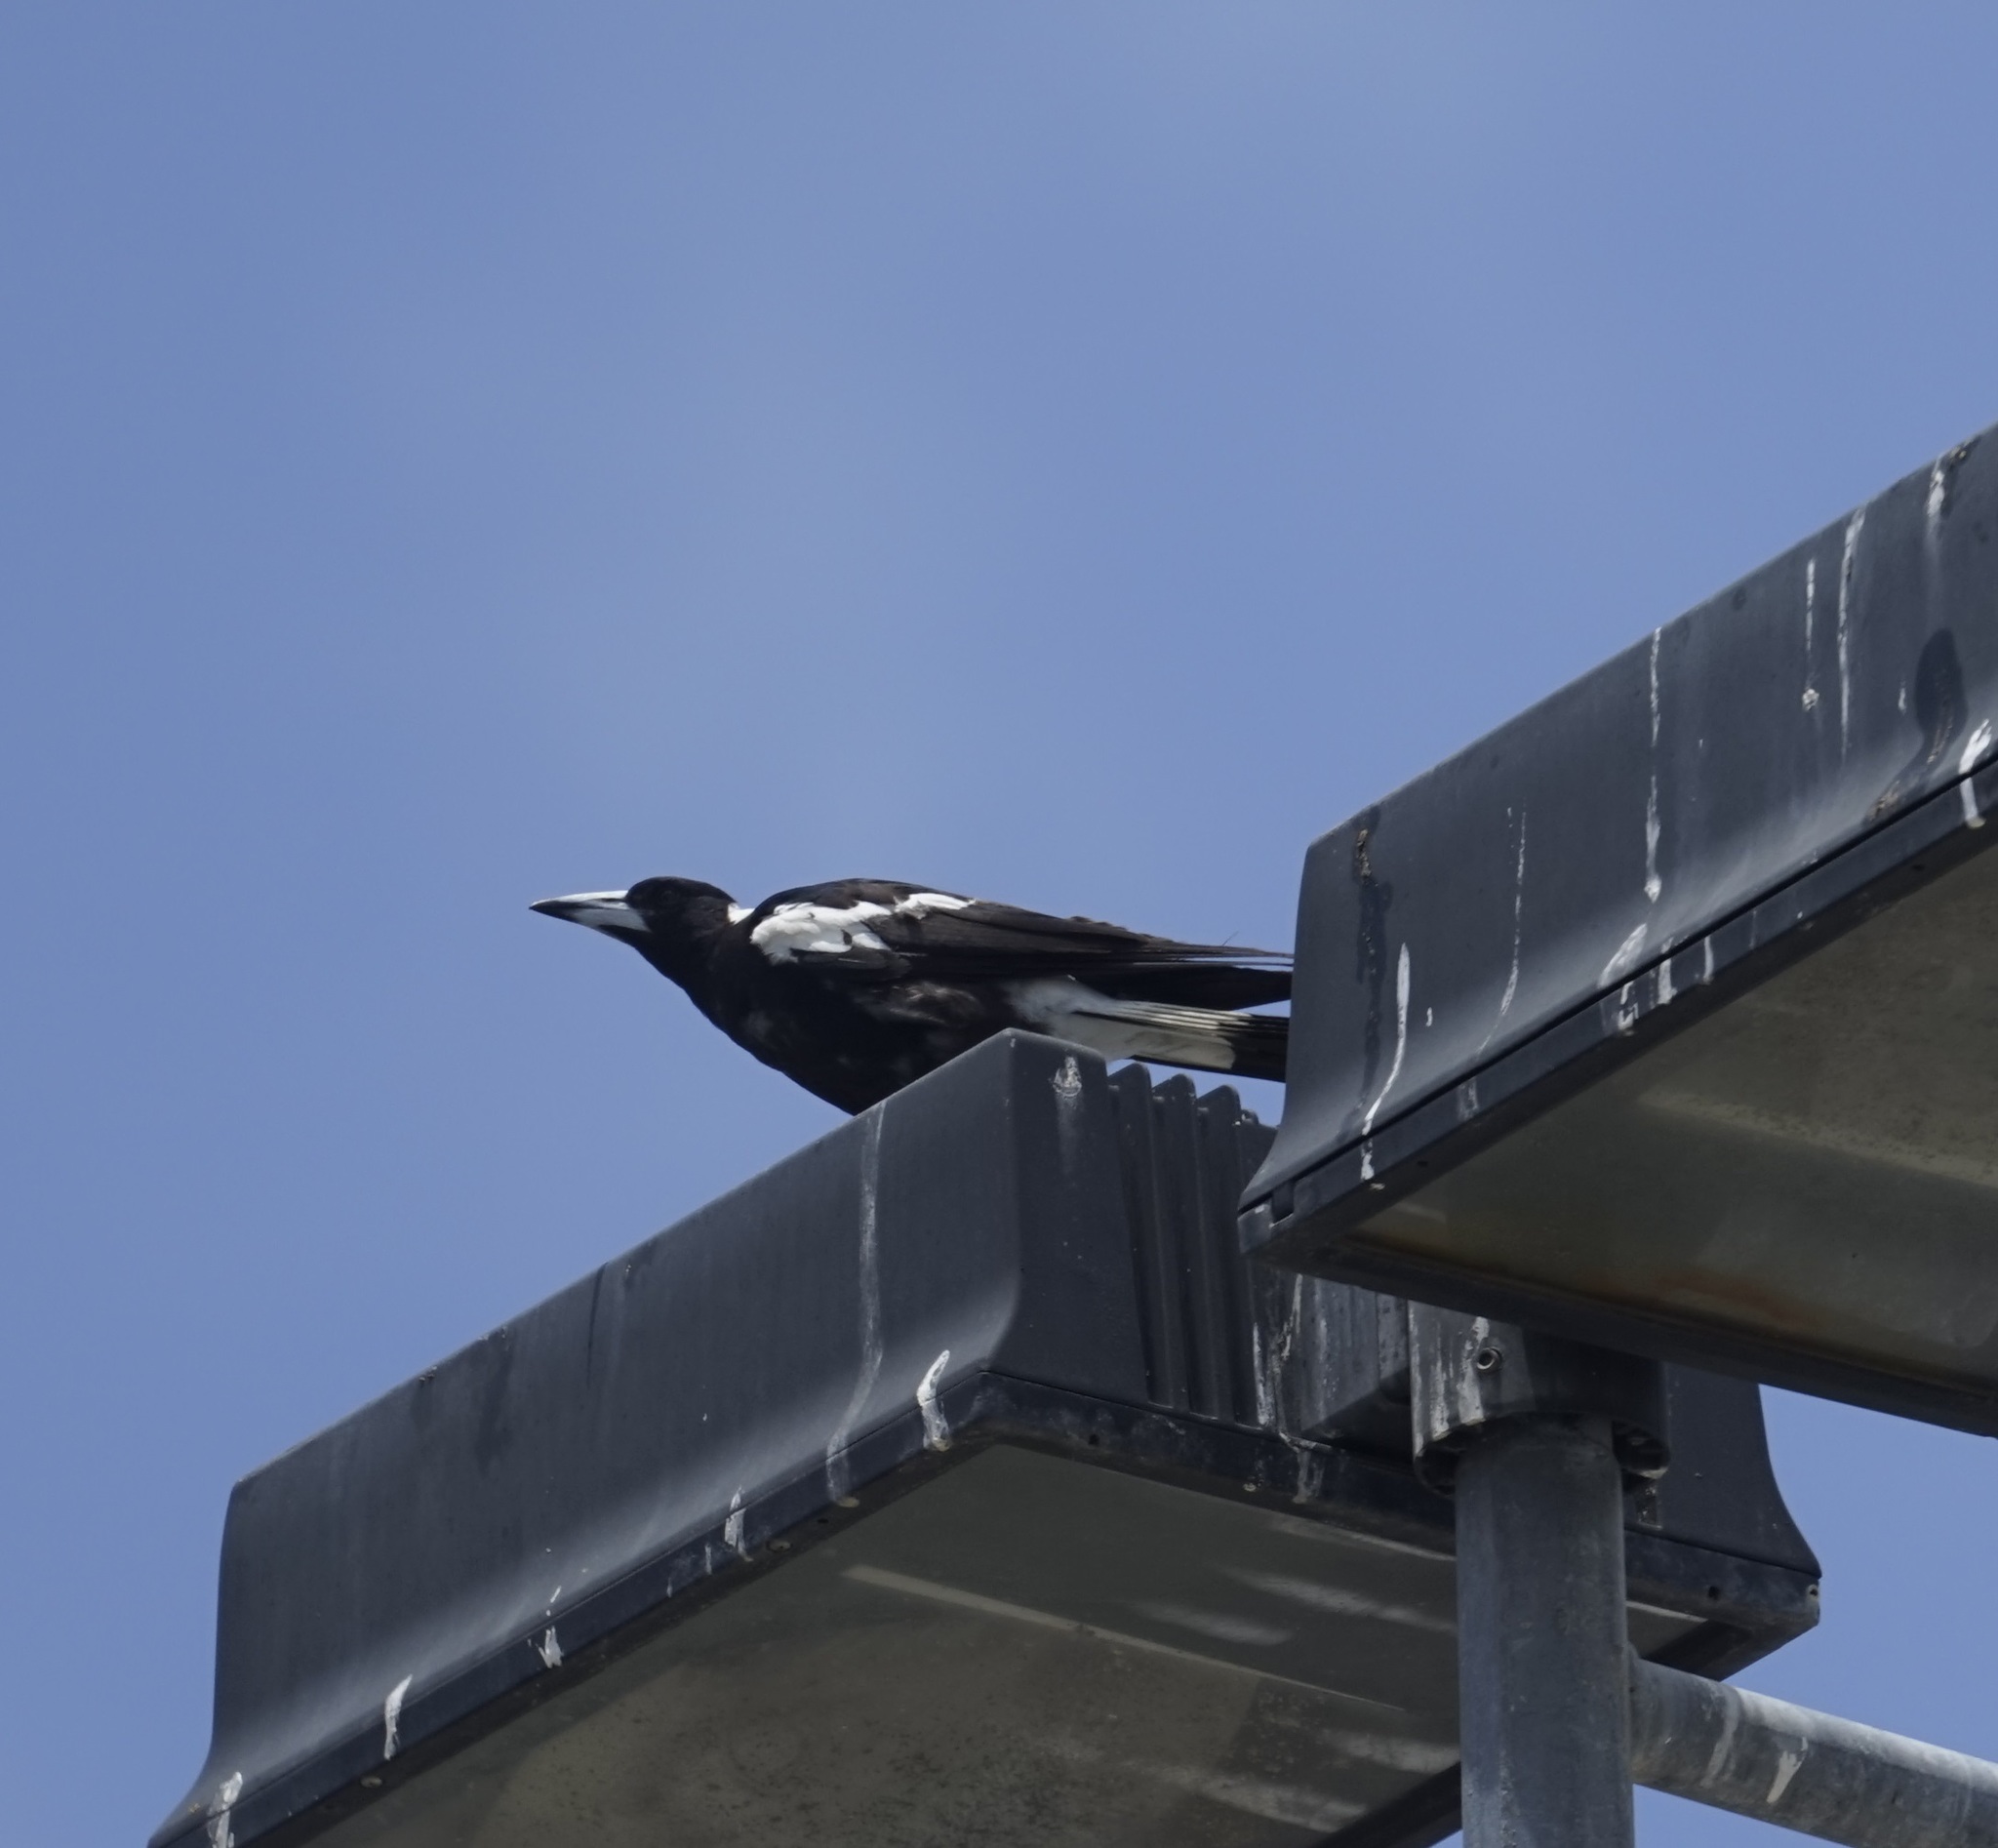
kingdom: Animalia
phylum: Chordata
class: Aves
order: Passeriformes
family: Cracticidae
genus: Gymnorhina
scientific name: Gymnorhina tibicen
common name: Australian magpie
